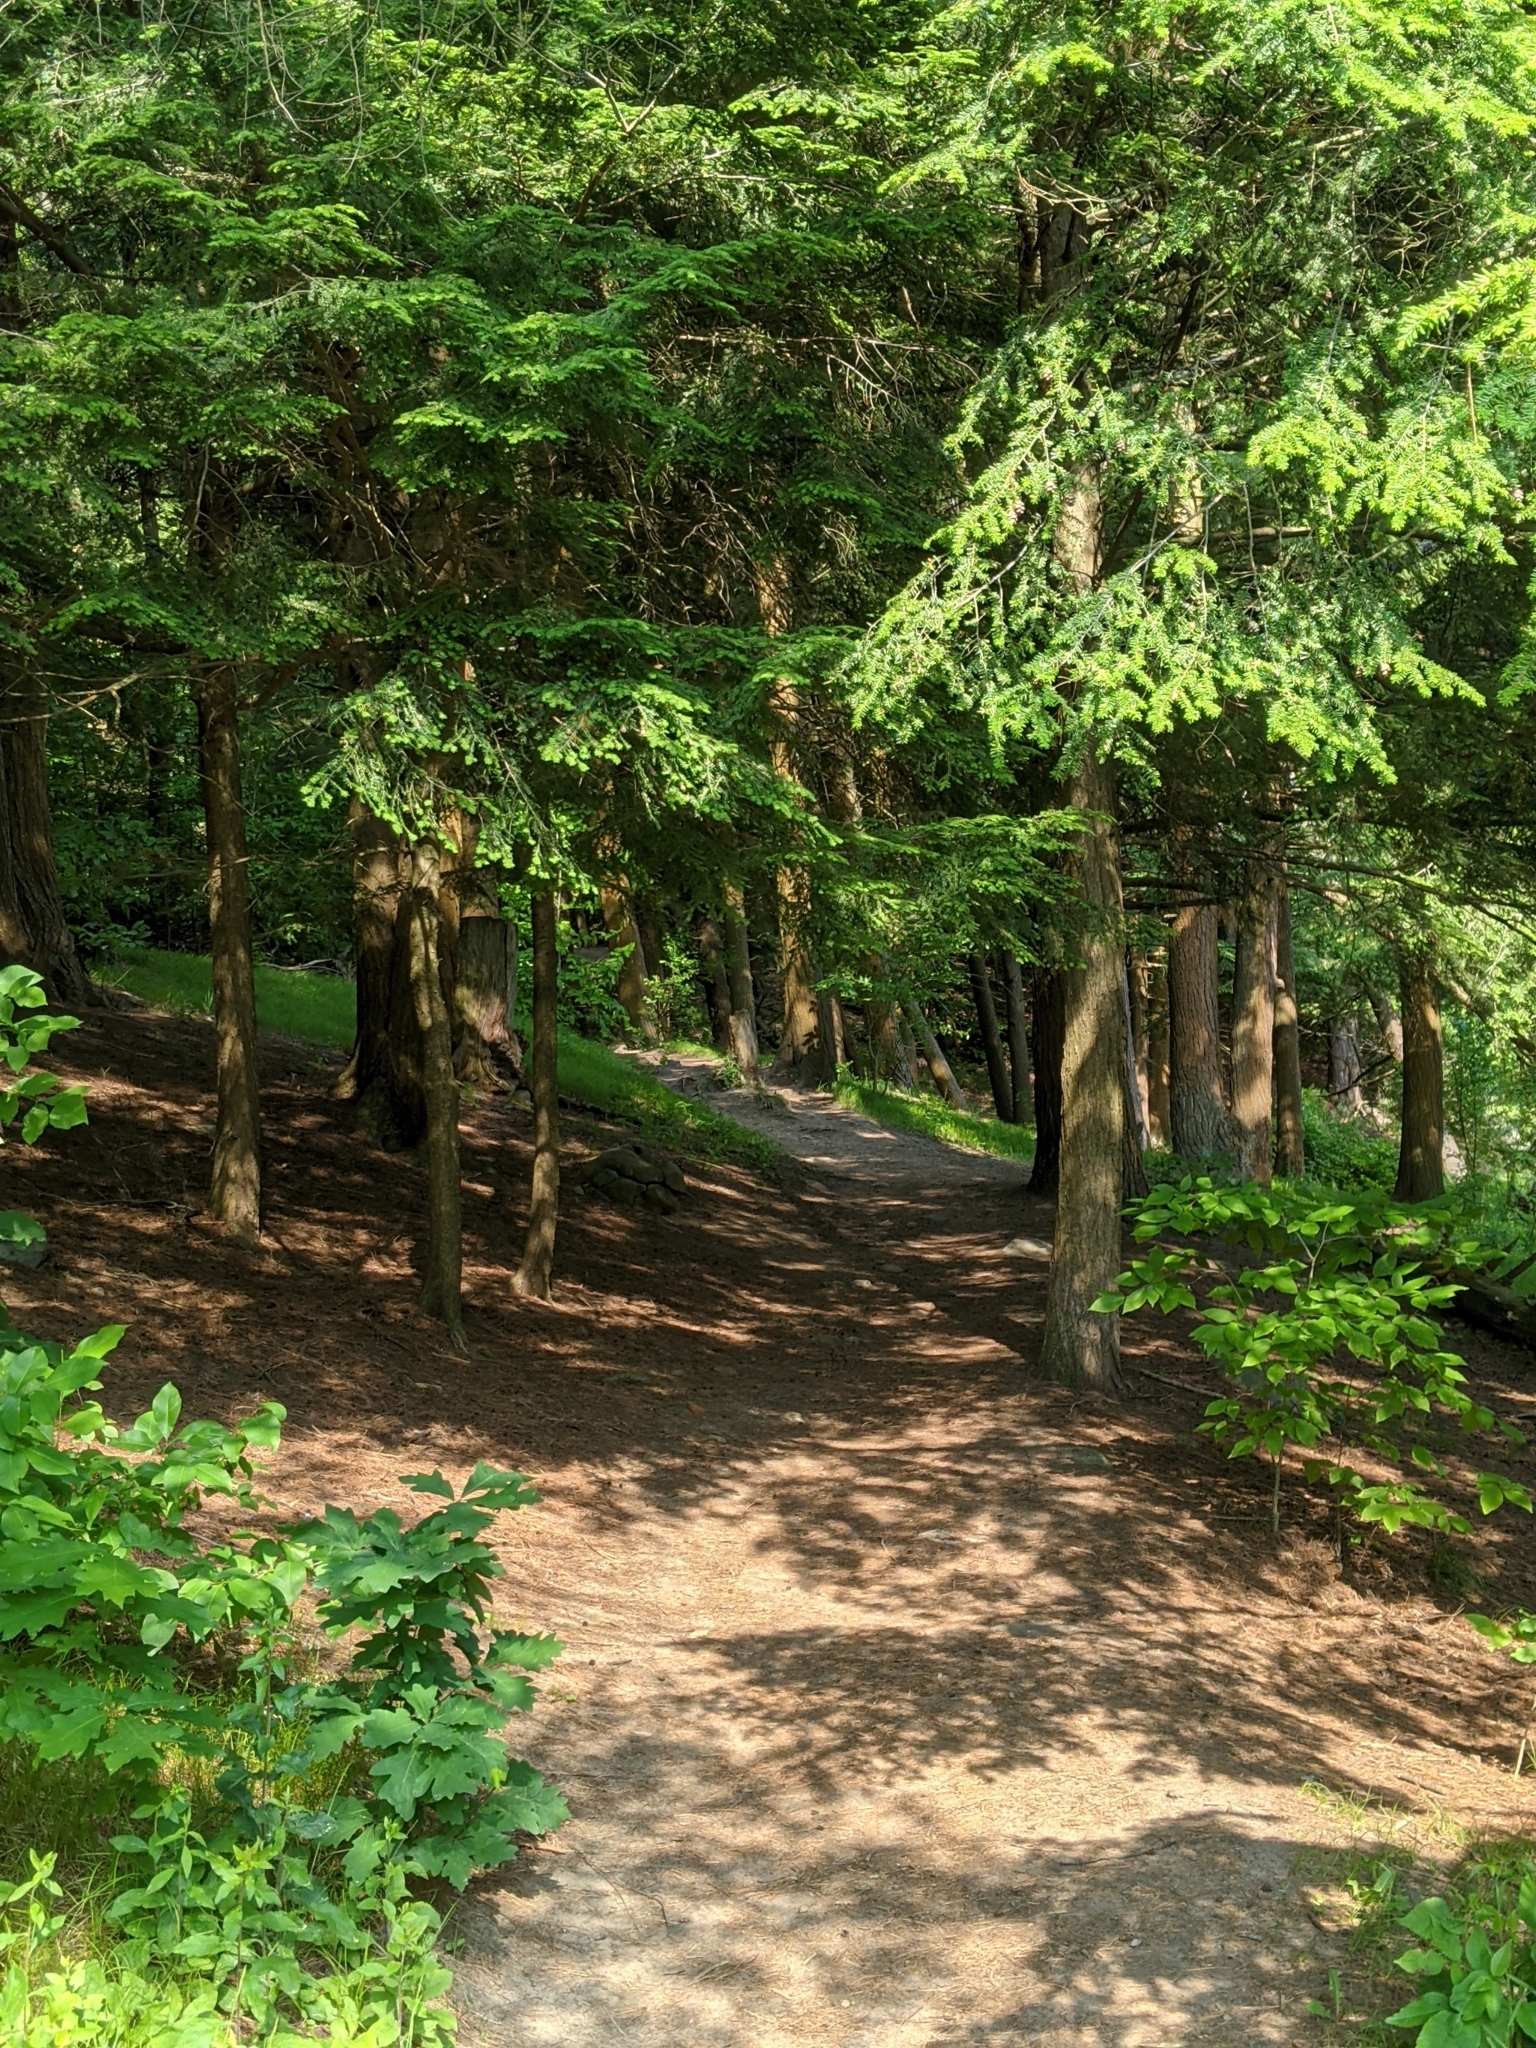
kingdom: Plantae
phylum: Tracheophyta
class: Pinopsida
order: Pinales
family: Pinaceae
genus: Tsuga
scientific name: Tsuga canadensis
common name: Eastern hemlock
